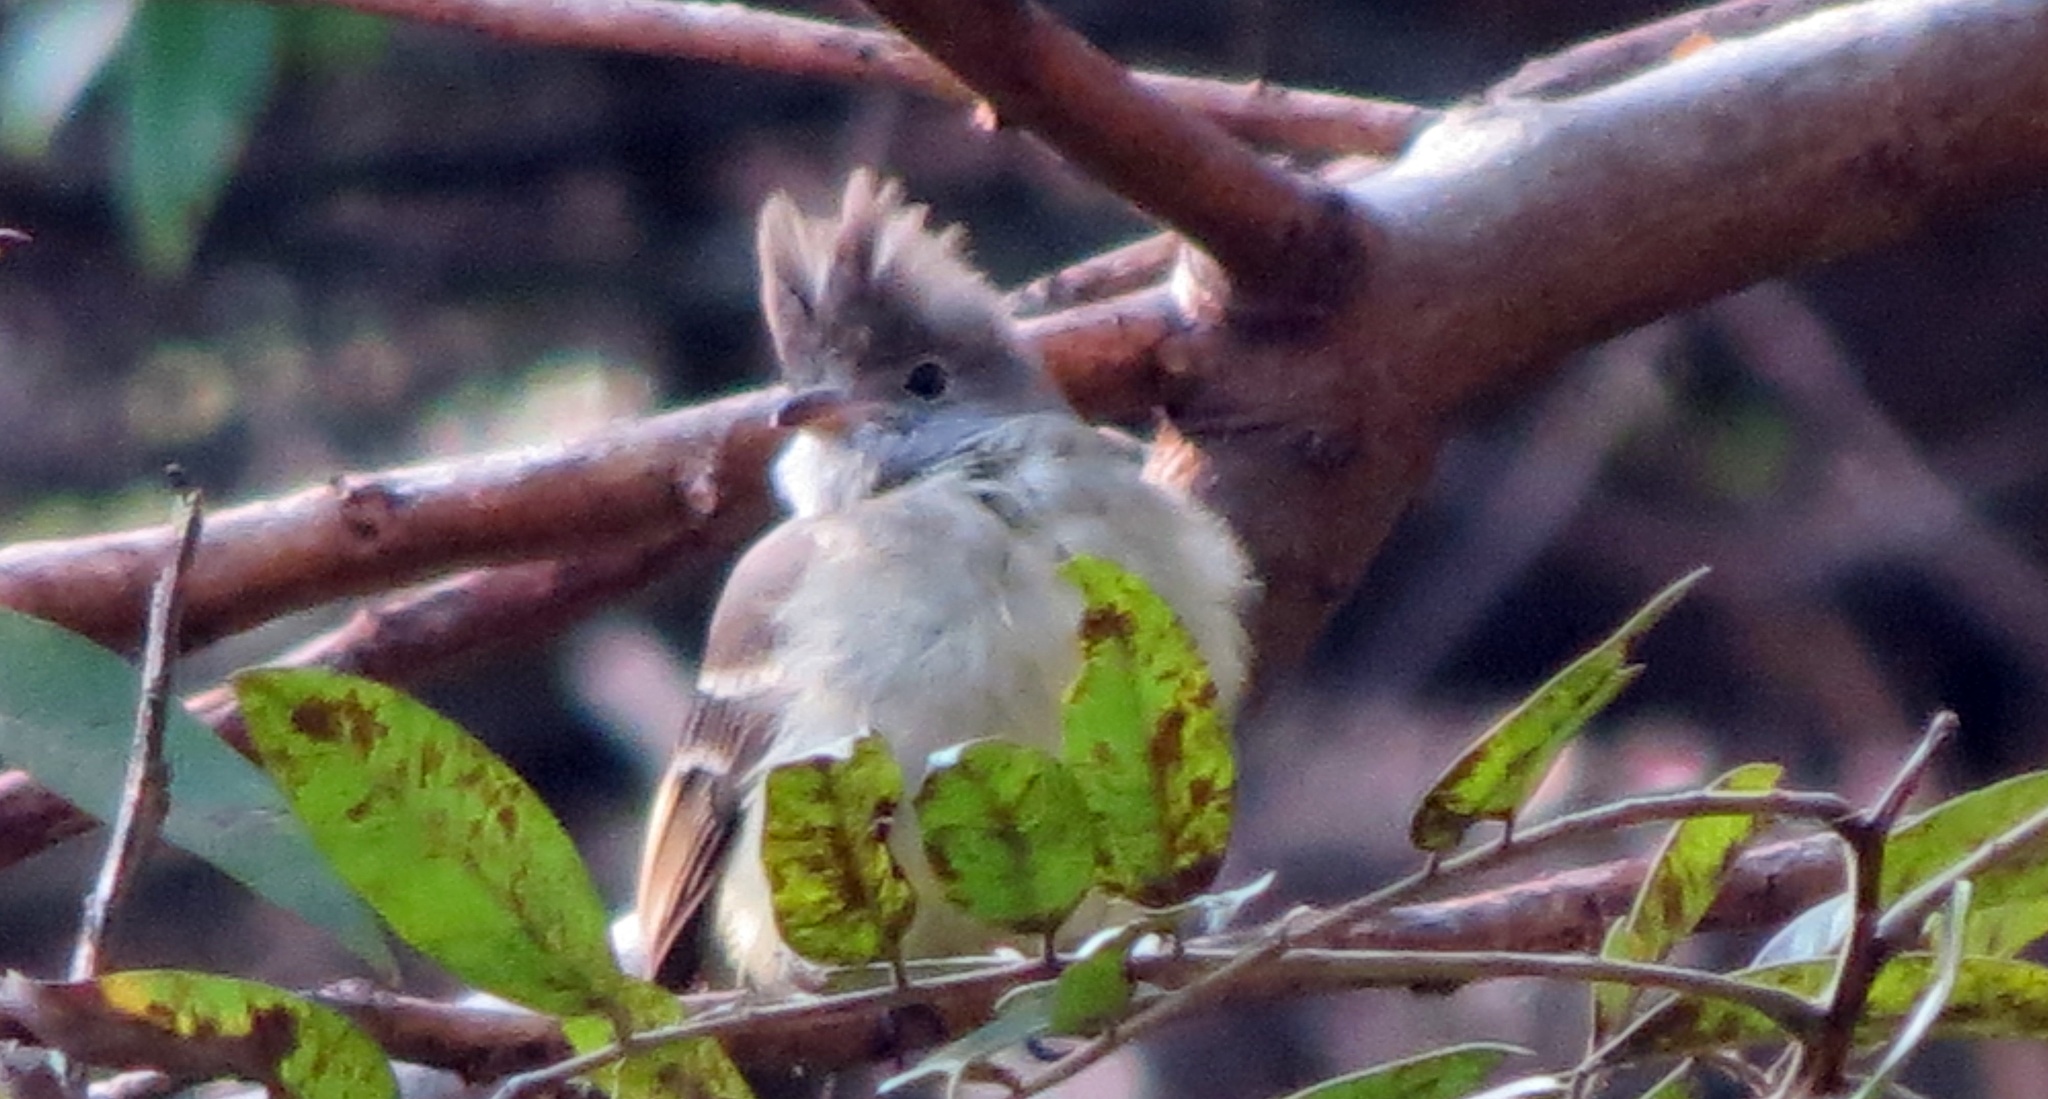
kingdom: Animalia
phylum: Chordata
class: Aves
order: Passeriformes
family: Tyrannidae
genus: Elaenia
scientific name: Elaenia flavogaster
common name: Yellow-bellied elaenia
